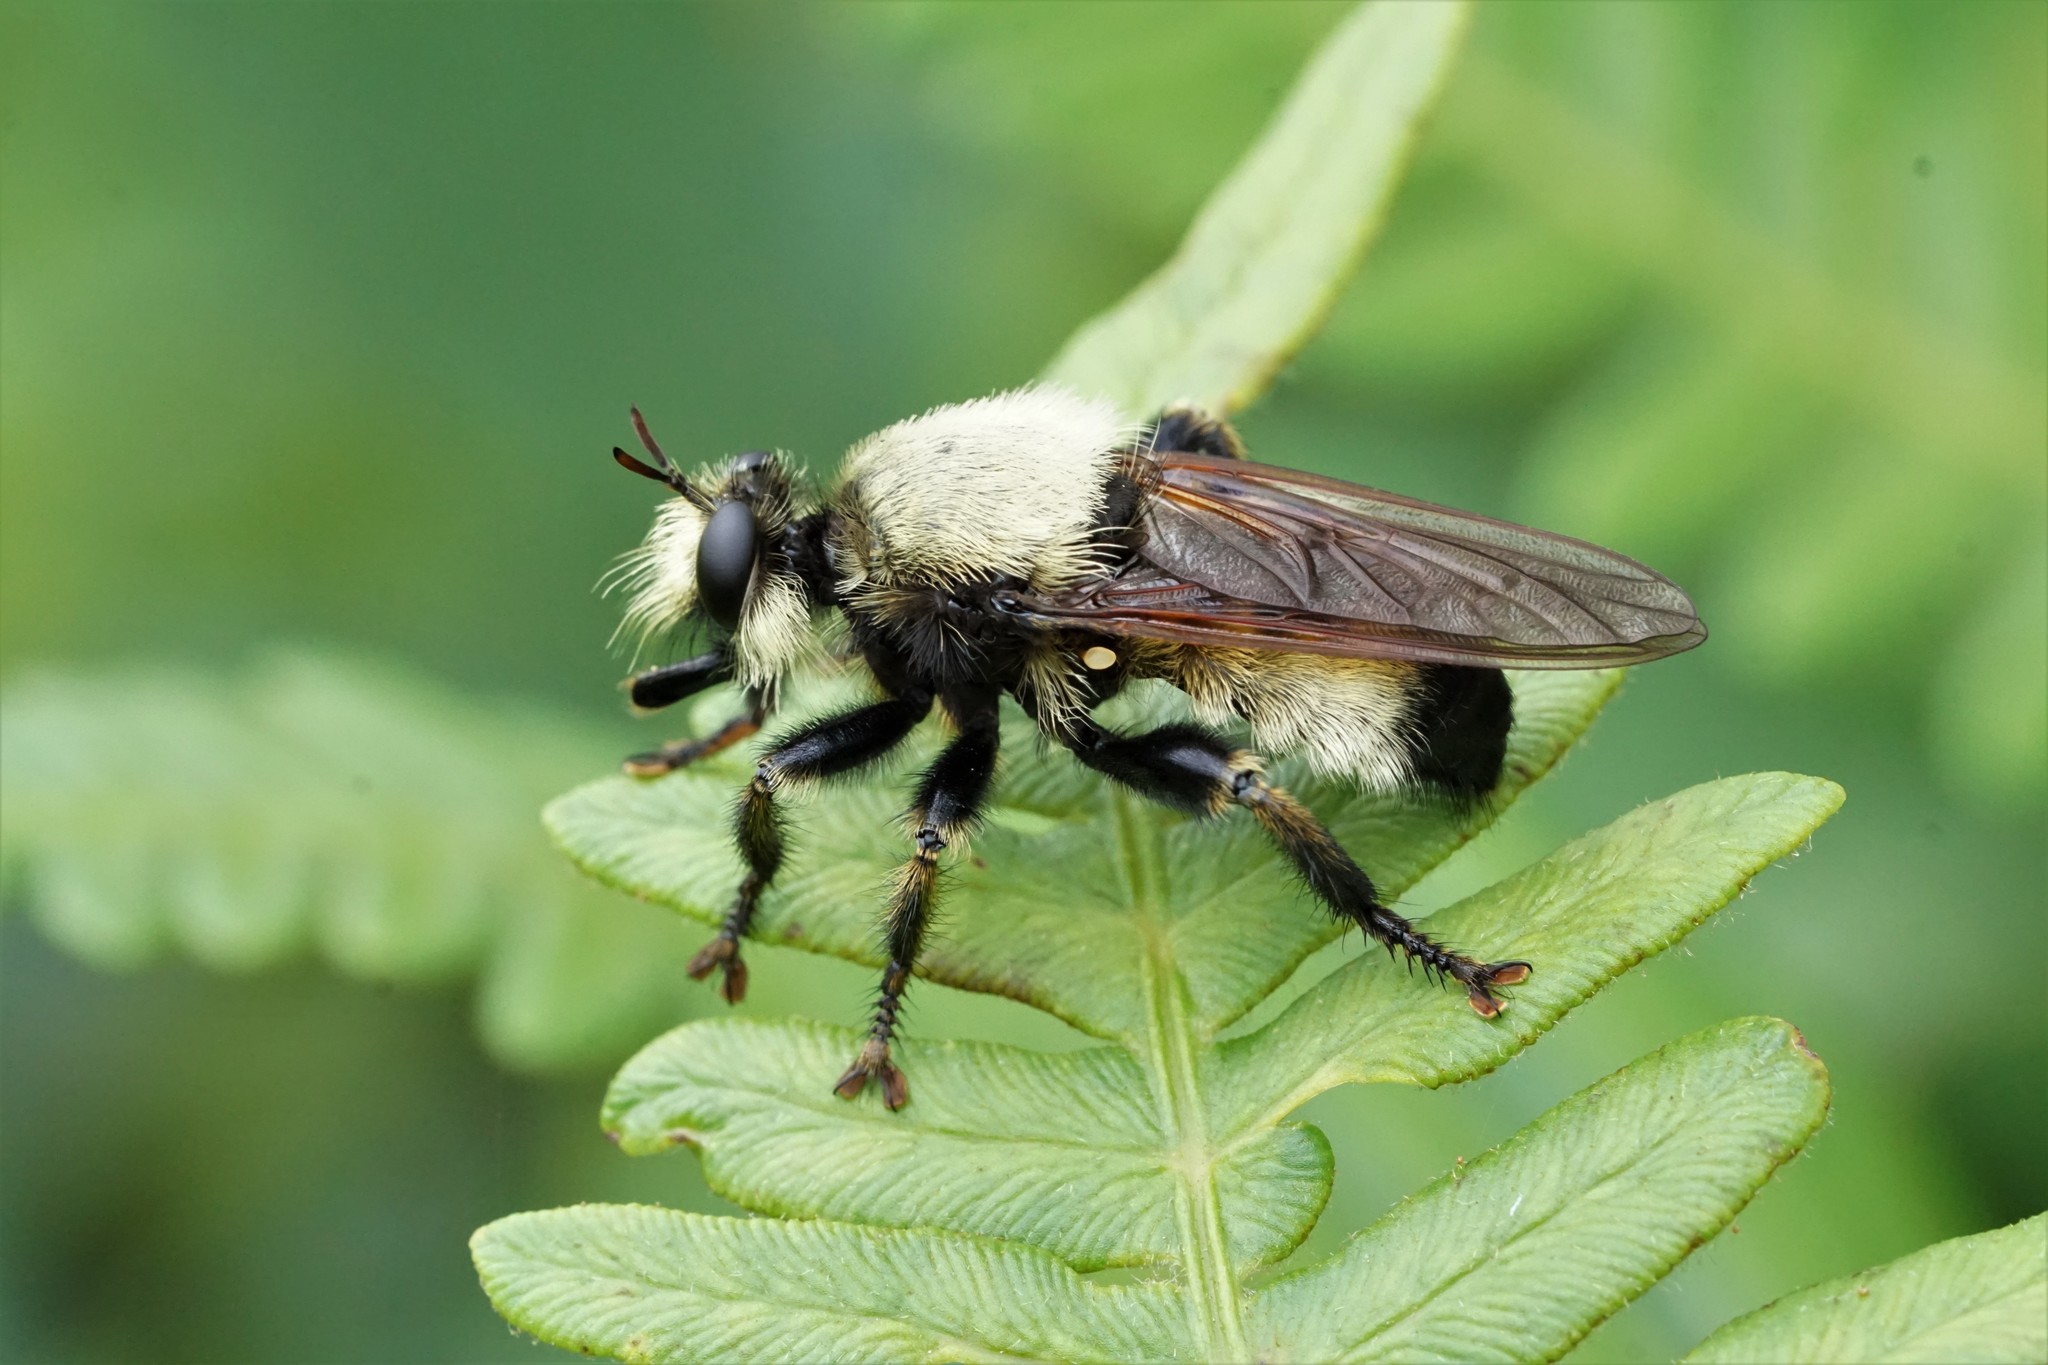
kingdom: Animalia
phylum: Arthropoda
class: Insecta
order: Diptera
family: Asilidae
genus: Laphria
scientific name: Laphria champlainii
